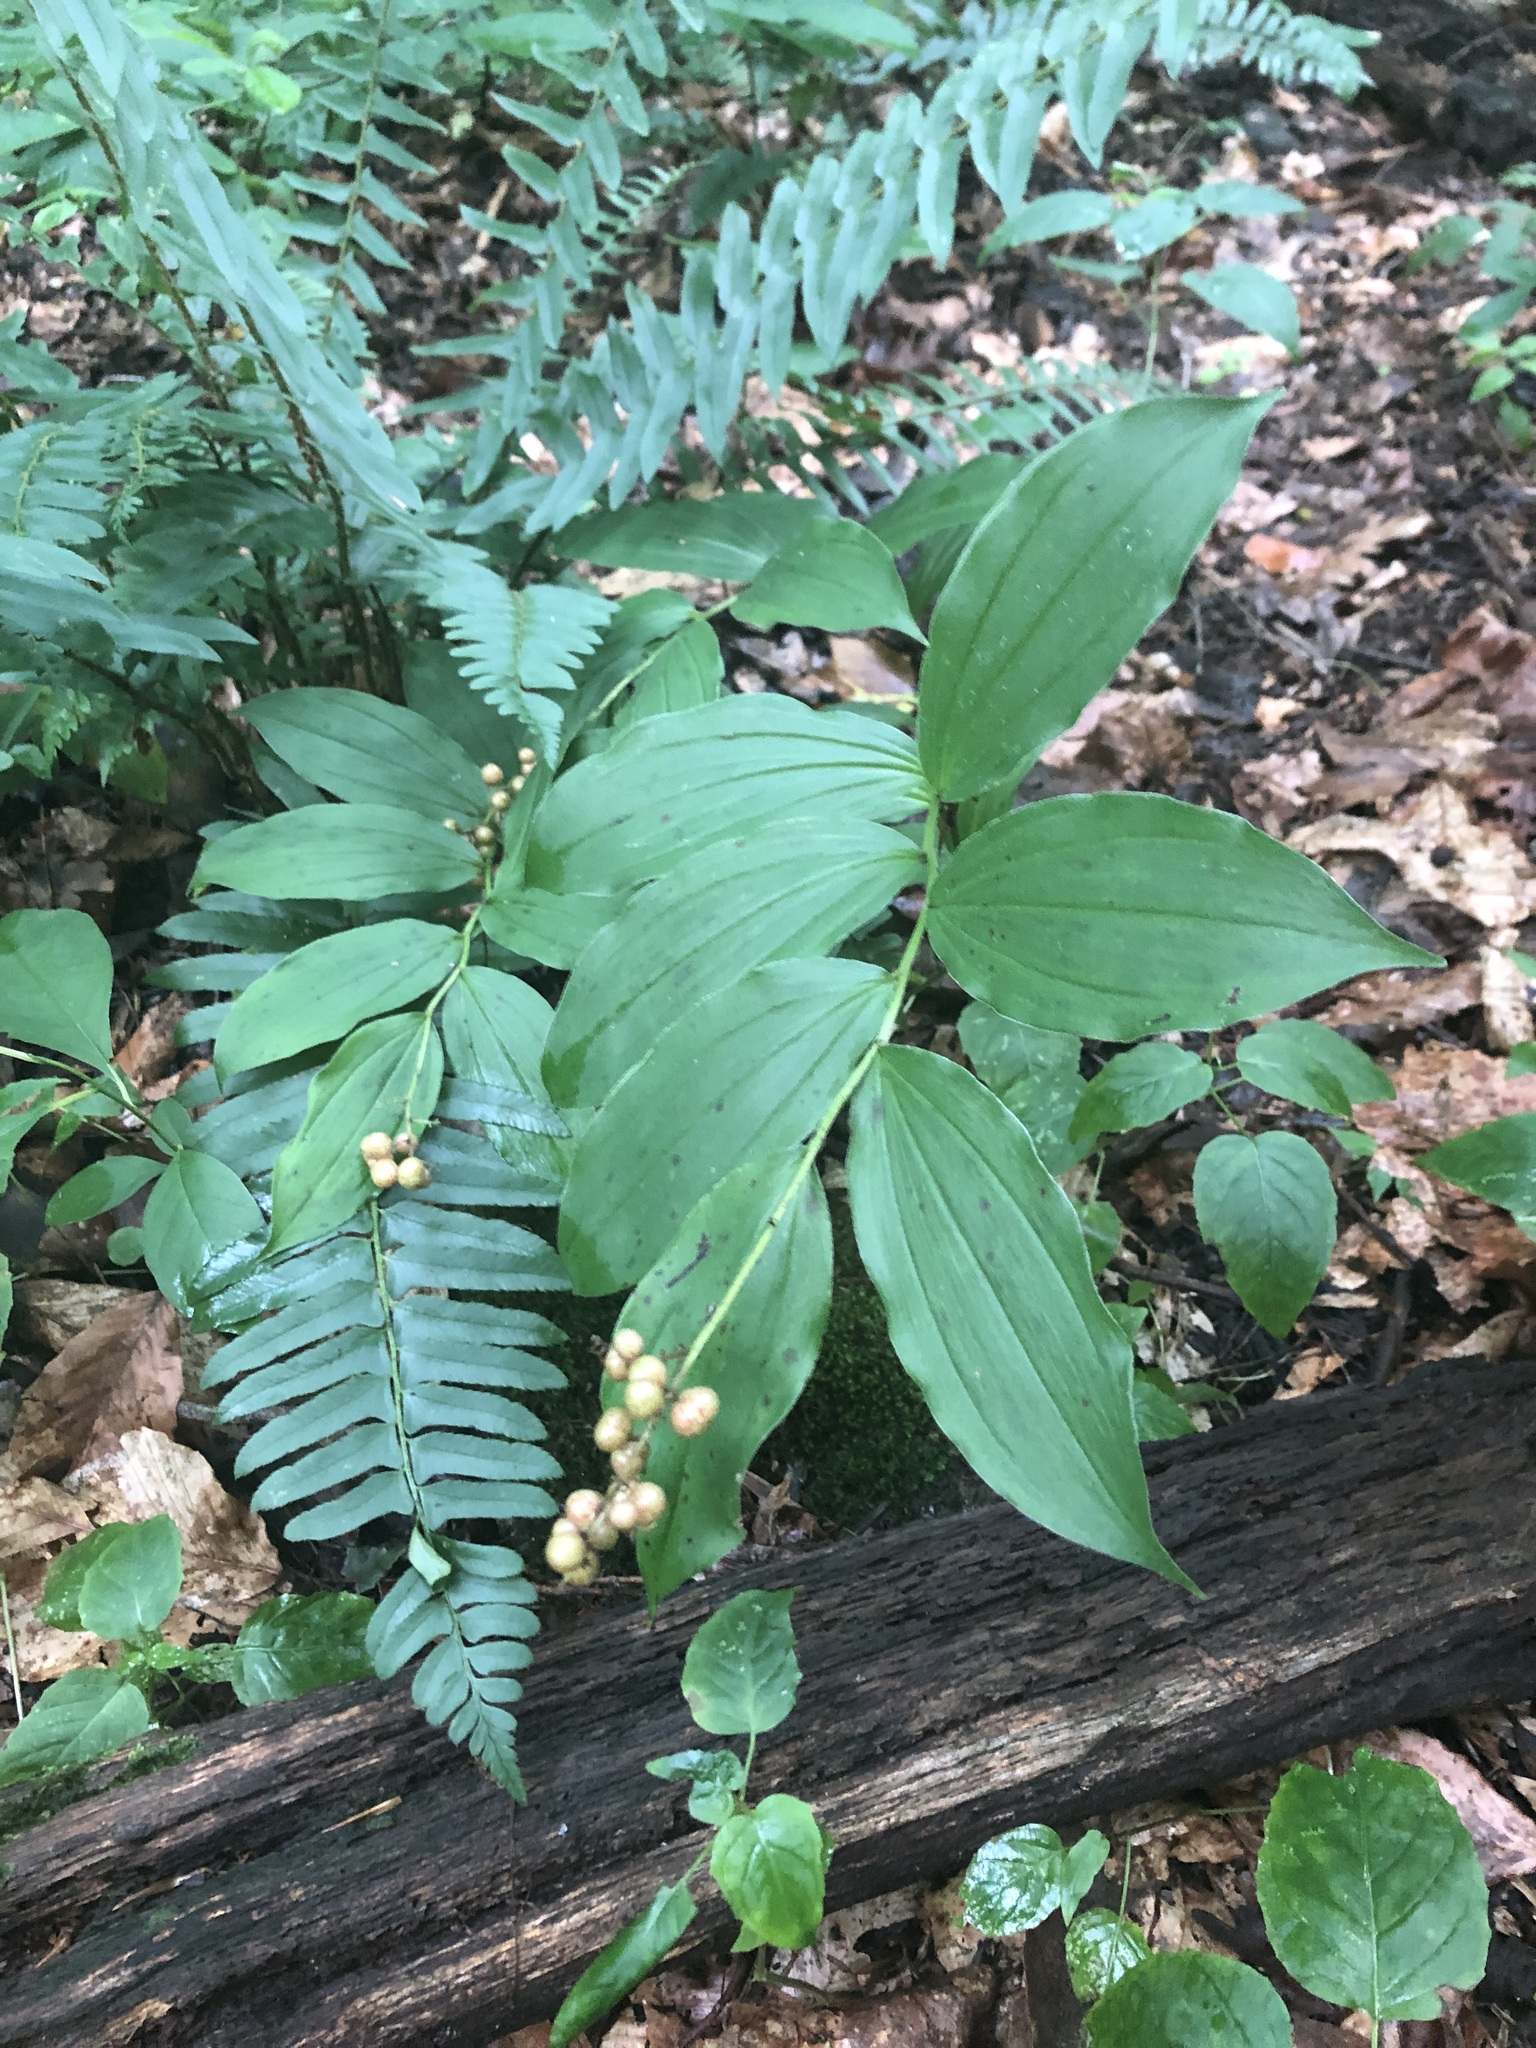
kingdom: Plantae
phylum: Tracheophyta
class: Liliopsida
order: Asparagales
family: Asparagaceae
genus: Maianthemum
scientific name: Maianthemum racemosum
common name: False spikenard
